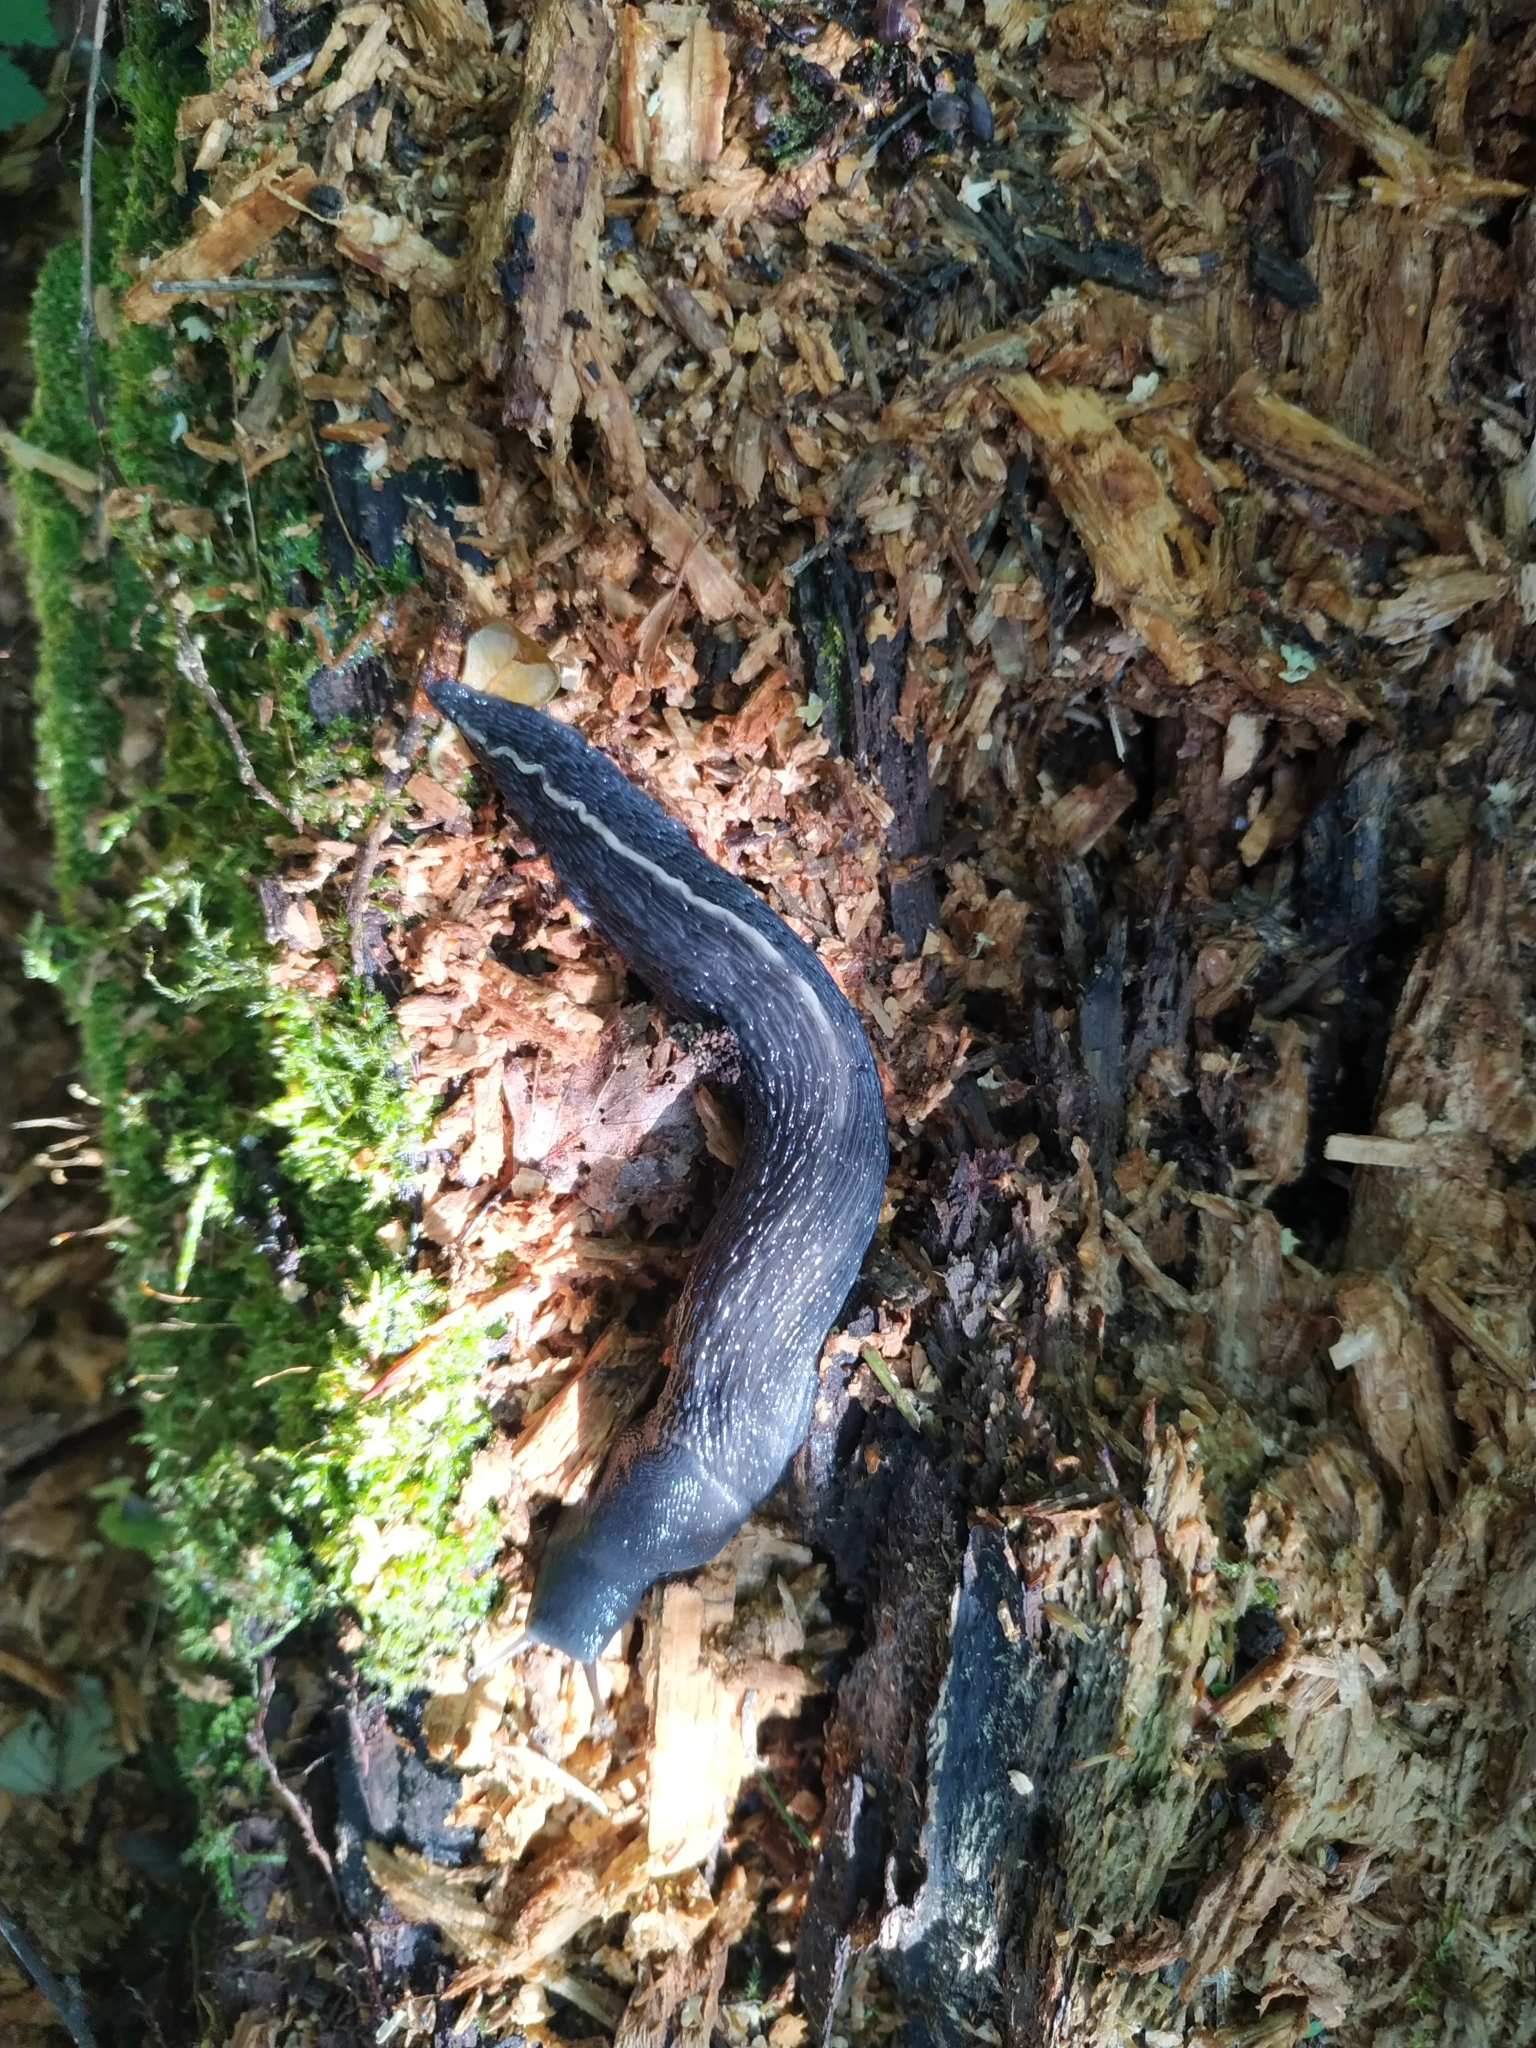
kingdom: Animalia
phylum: Mollusca
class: Gastropoda
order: Stylommatophora
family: Limacidae
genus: Limax
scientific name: Limax cinereoniger
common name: Ash-black slug
